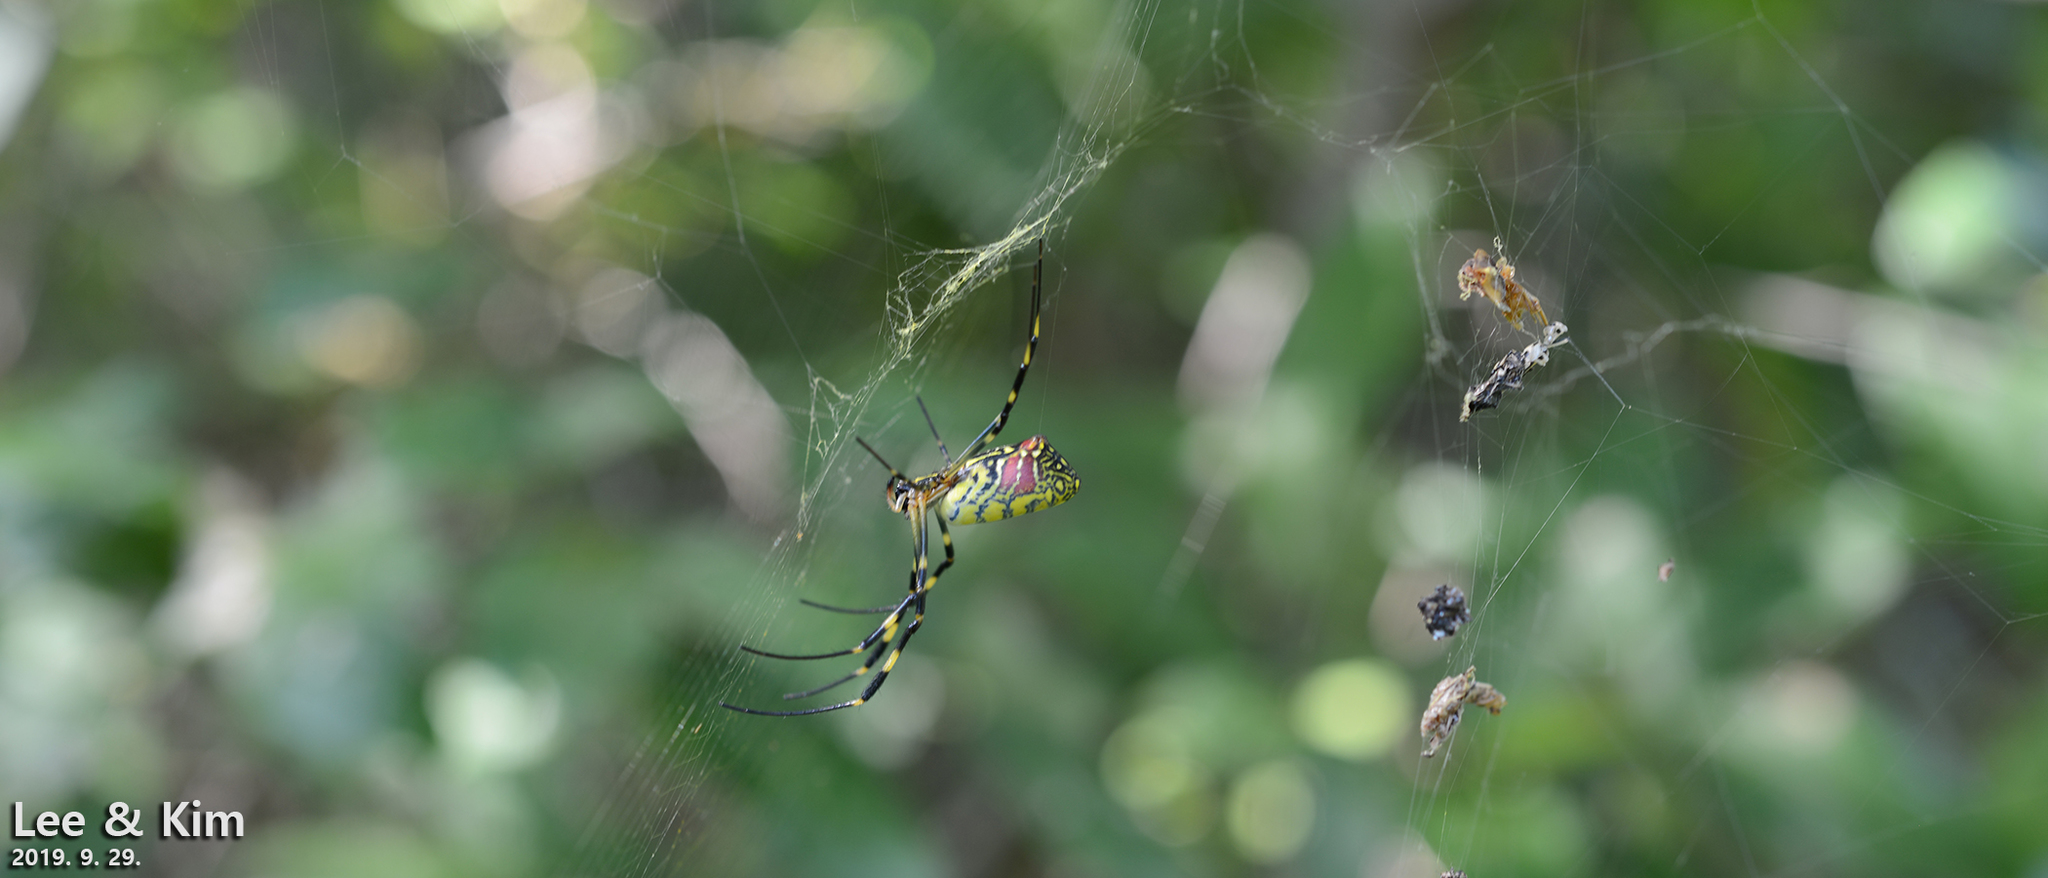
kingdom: Animalia
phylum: Arthropoda
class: Arachnida
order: Araneae
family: Araneidae
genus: Trichonephila
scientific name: Trichonephila clavata
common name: Jorō spider
